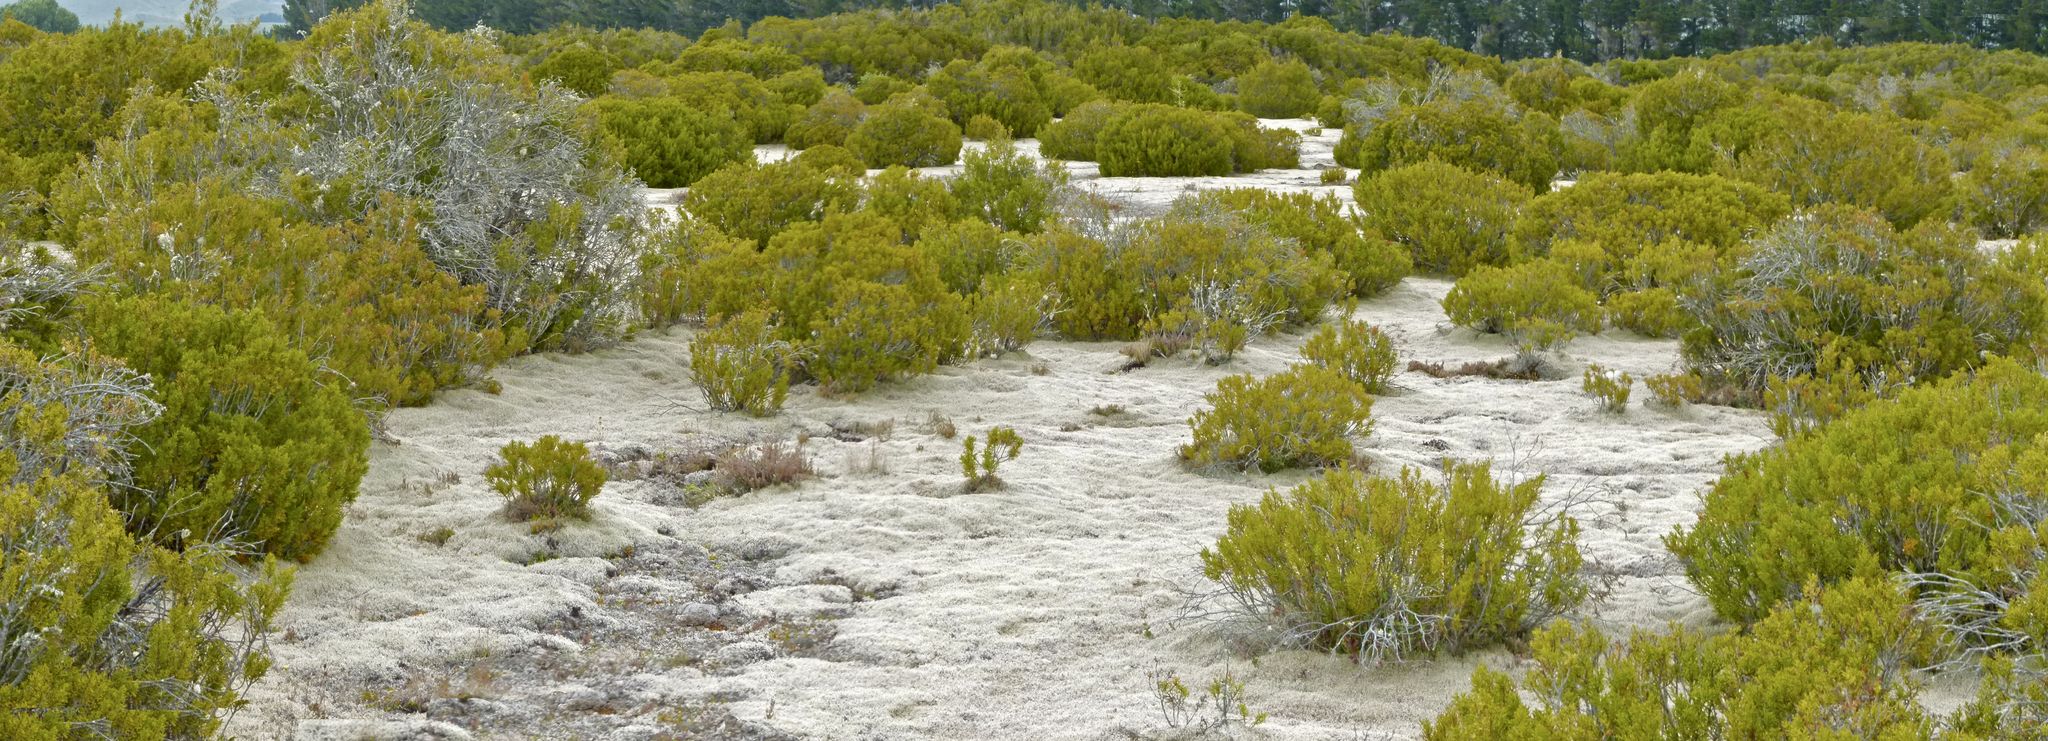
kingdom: Plantae
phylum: Tracheophyta
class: Pinopsida
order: Pinales
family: Podocarpaceae
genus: Halocarpus
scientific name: Halocarpus bidwillii
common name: Bog pine
